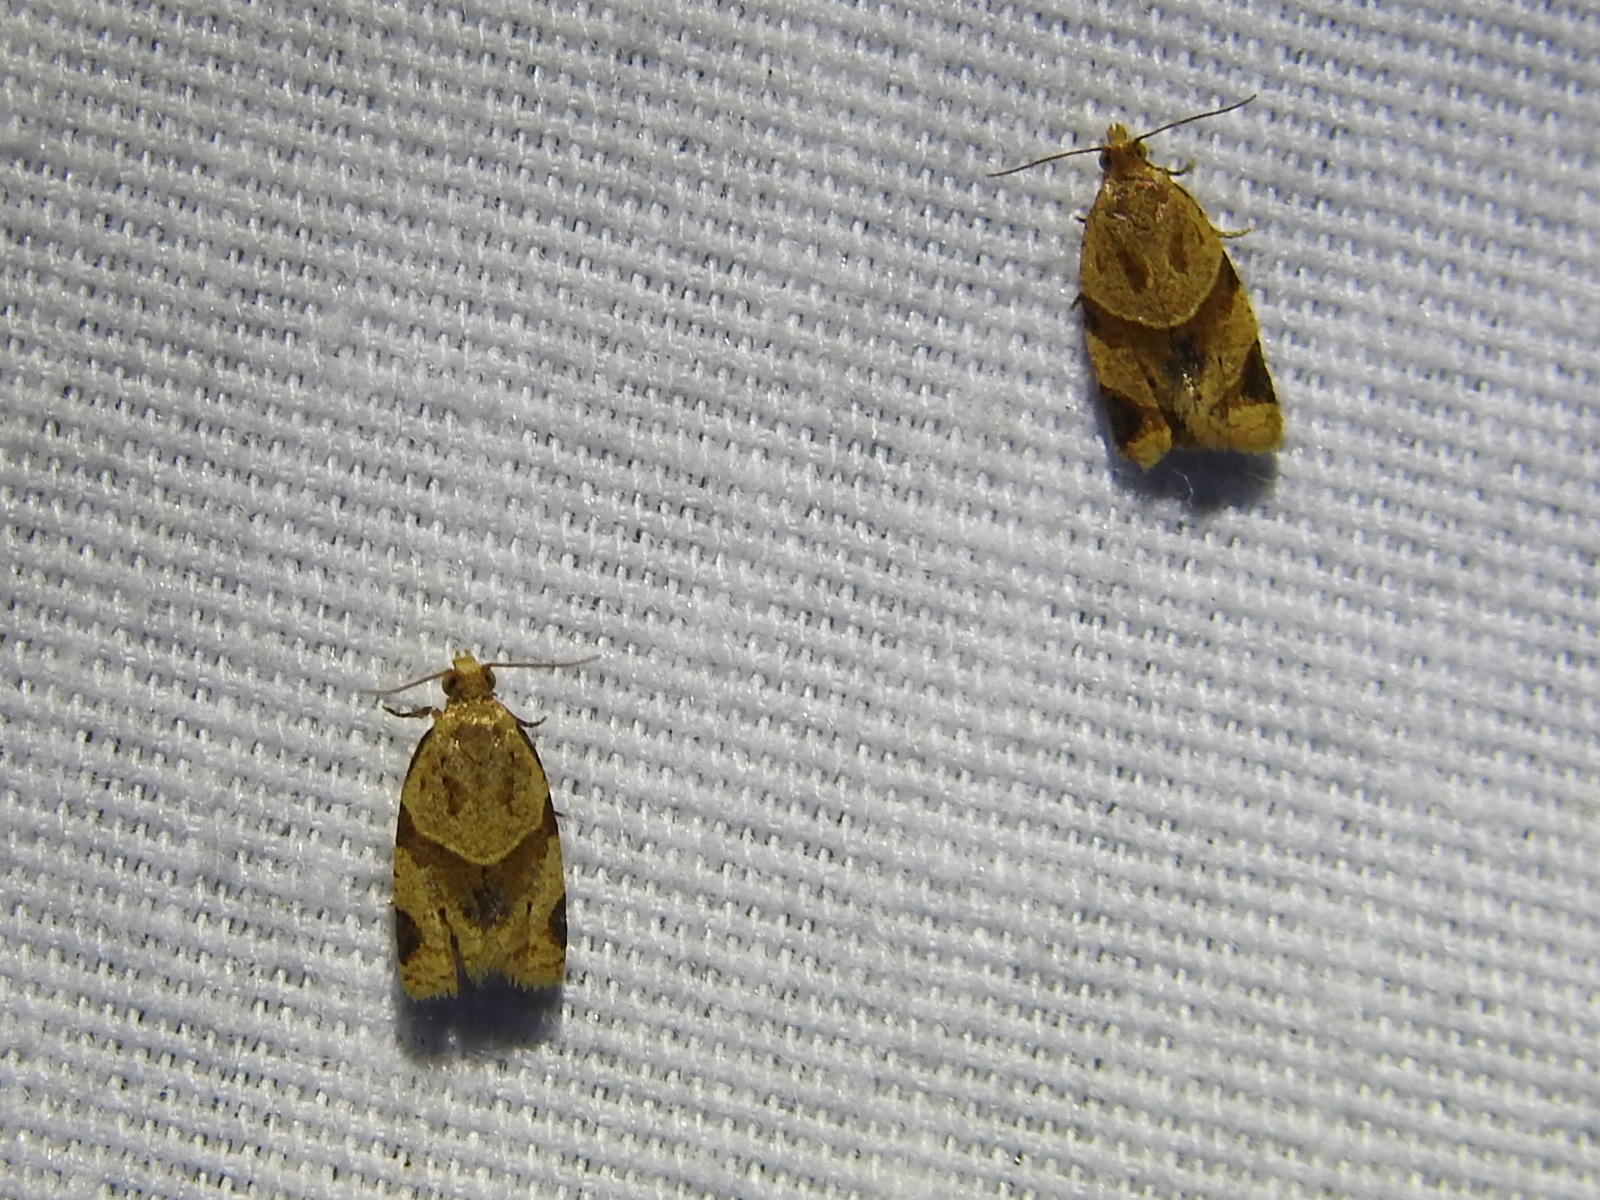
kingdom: Animalia
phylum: Arthropoda
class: Insecta
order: Lepidoptera
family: Tortricidae
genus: Clepsis
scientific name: Clepsis peritana
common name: Garden tortrix
